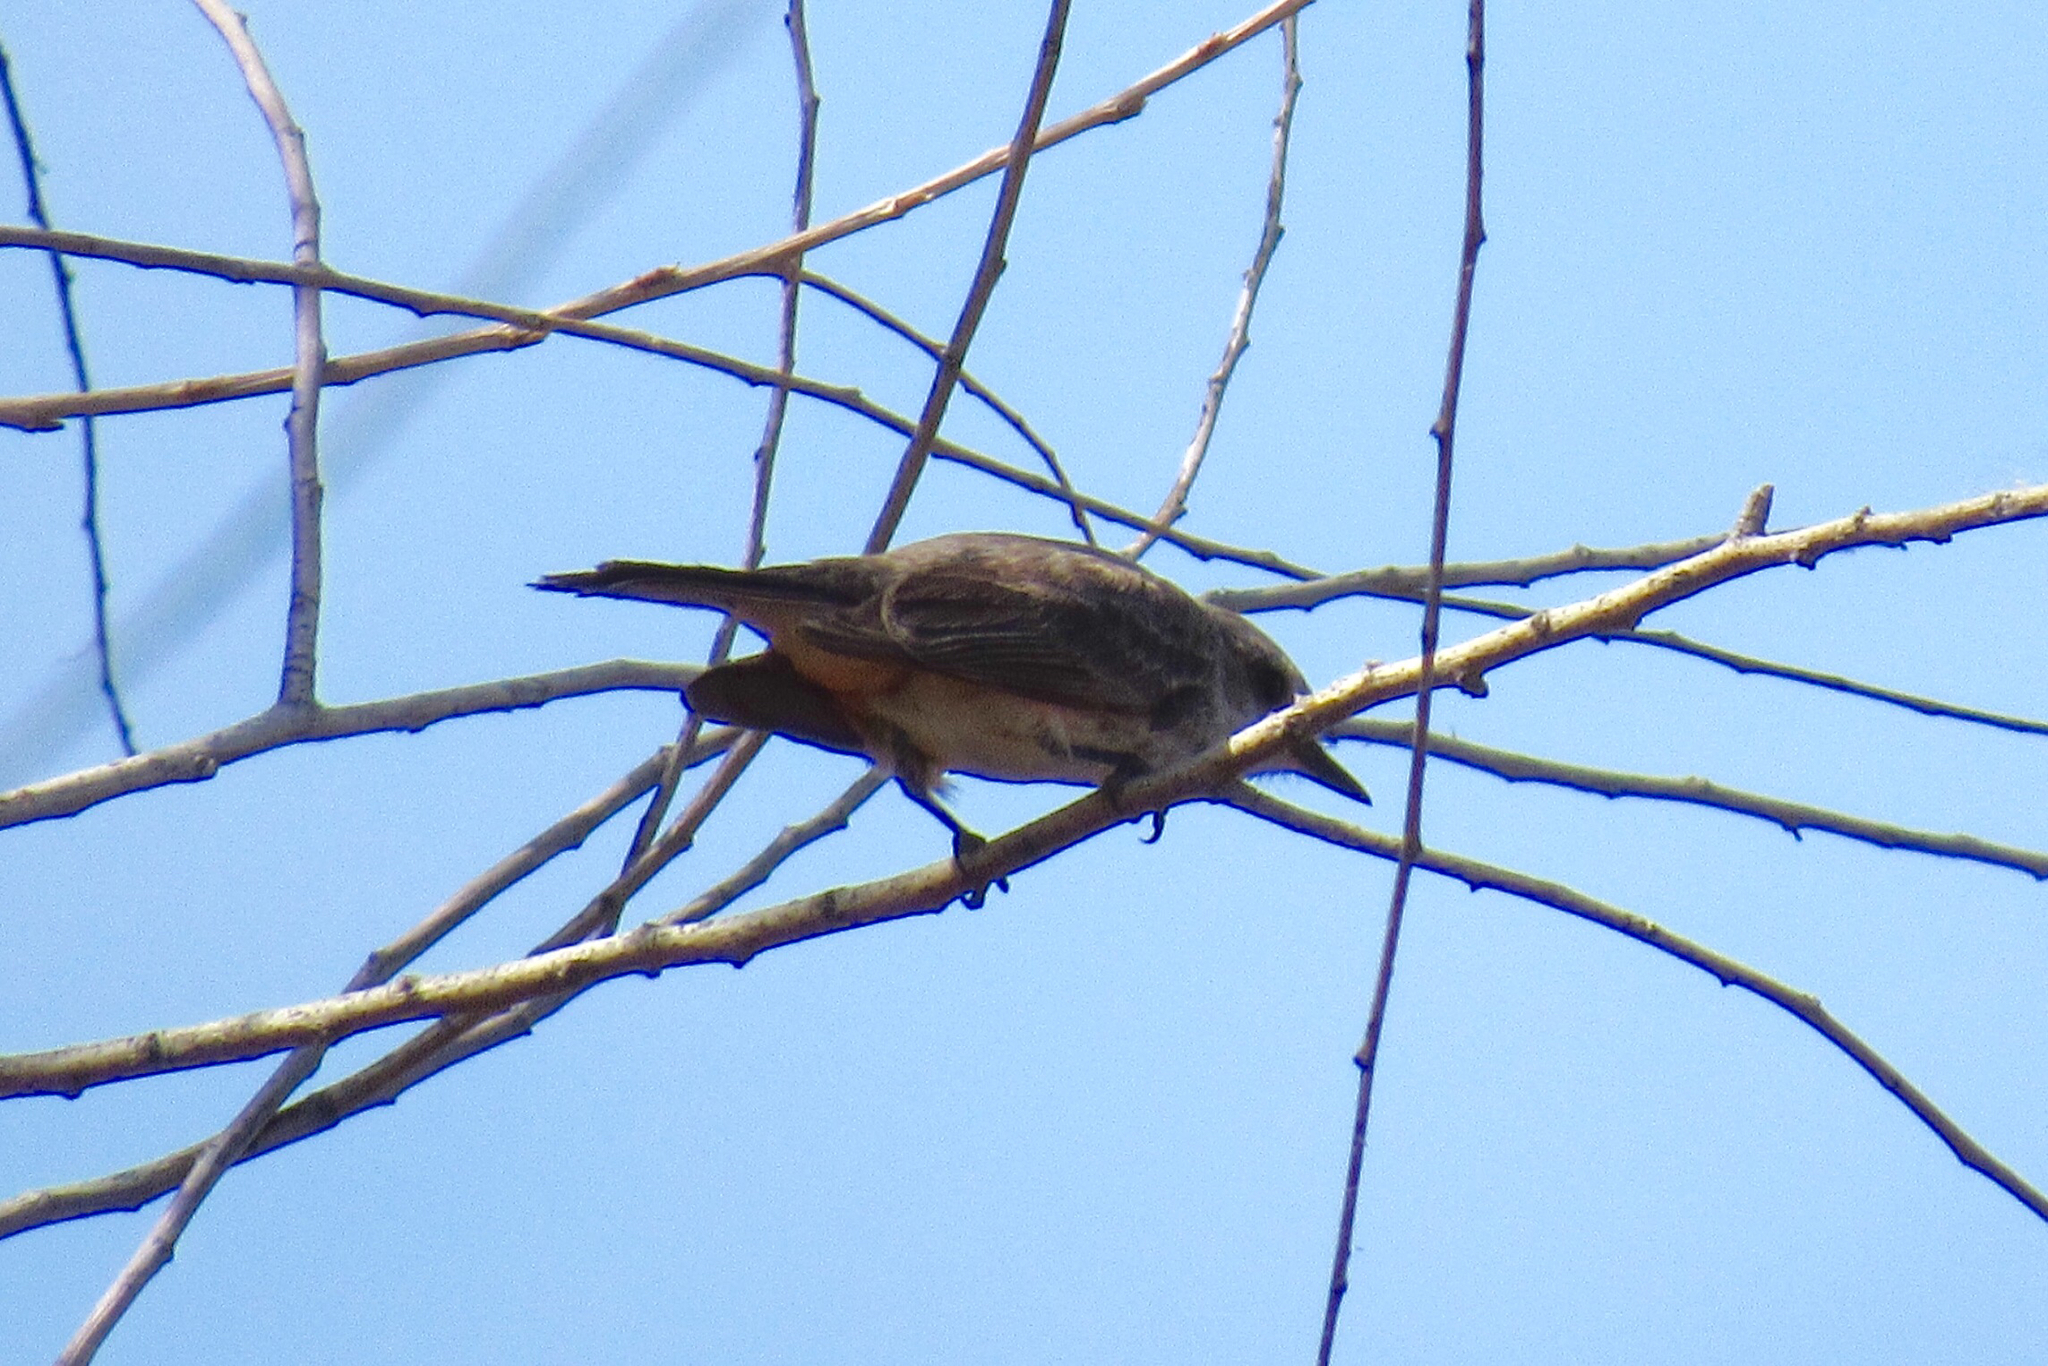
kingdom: Animalia
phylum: Chordata
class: Aves
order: Passeriformes
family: Tyrannidae
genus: Pyrocephalus
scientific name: Pyrocephalus rubinus
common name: Vermilion flycatcher
